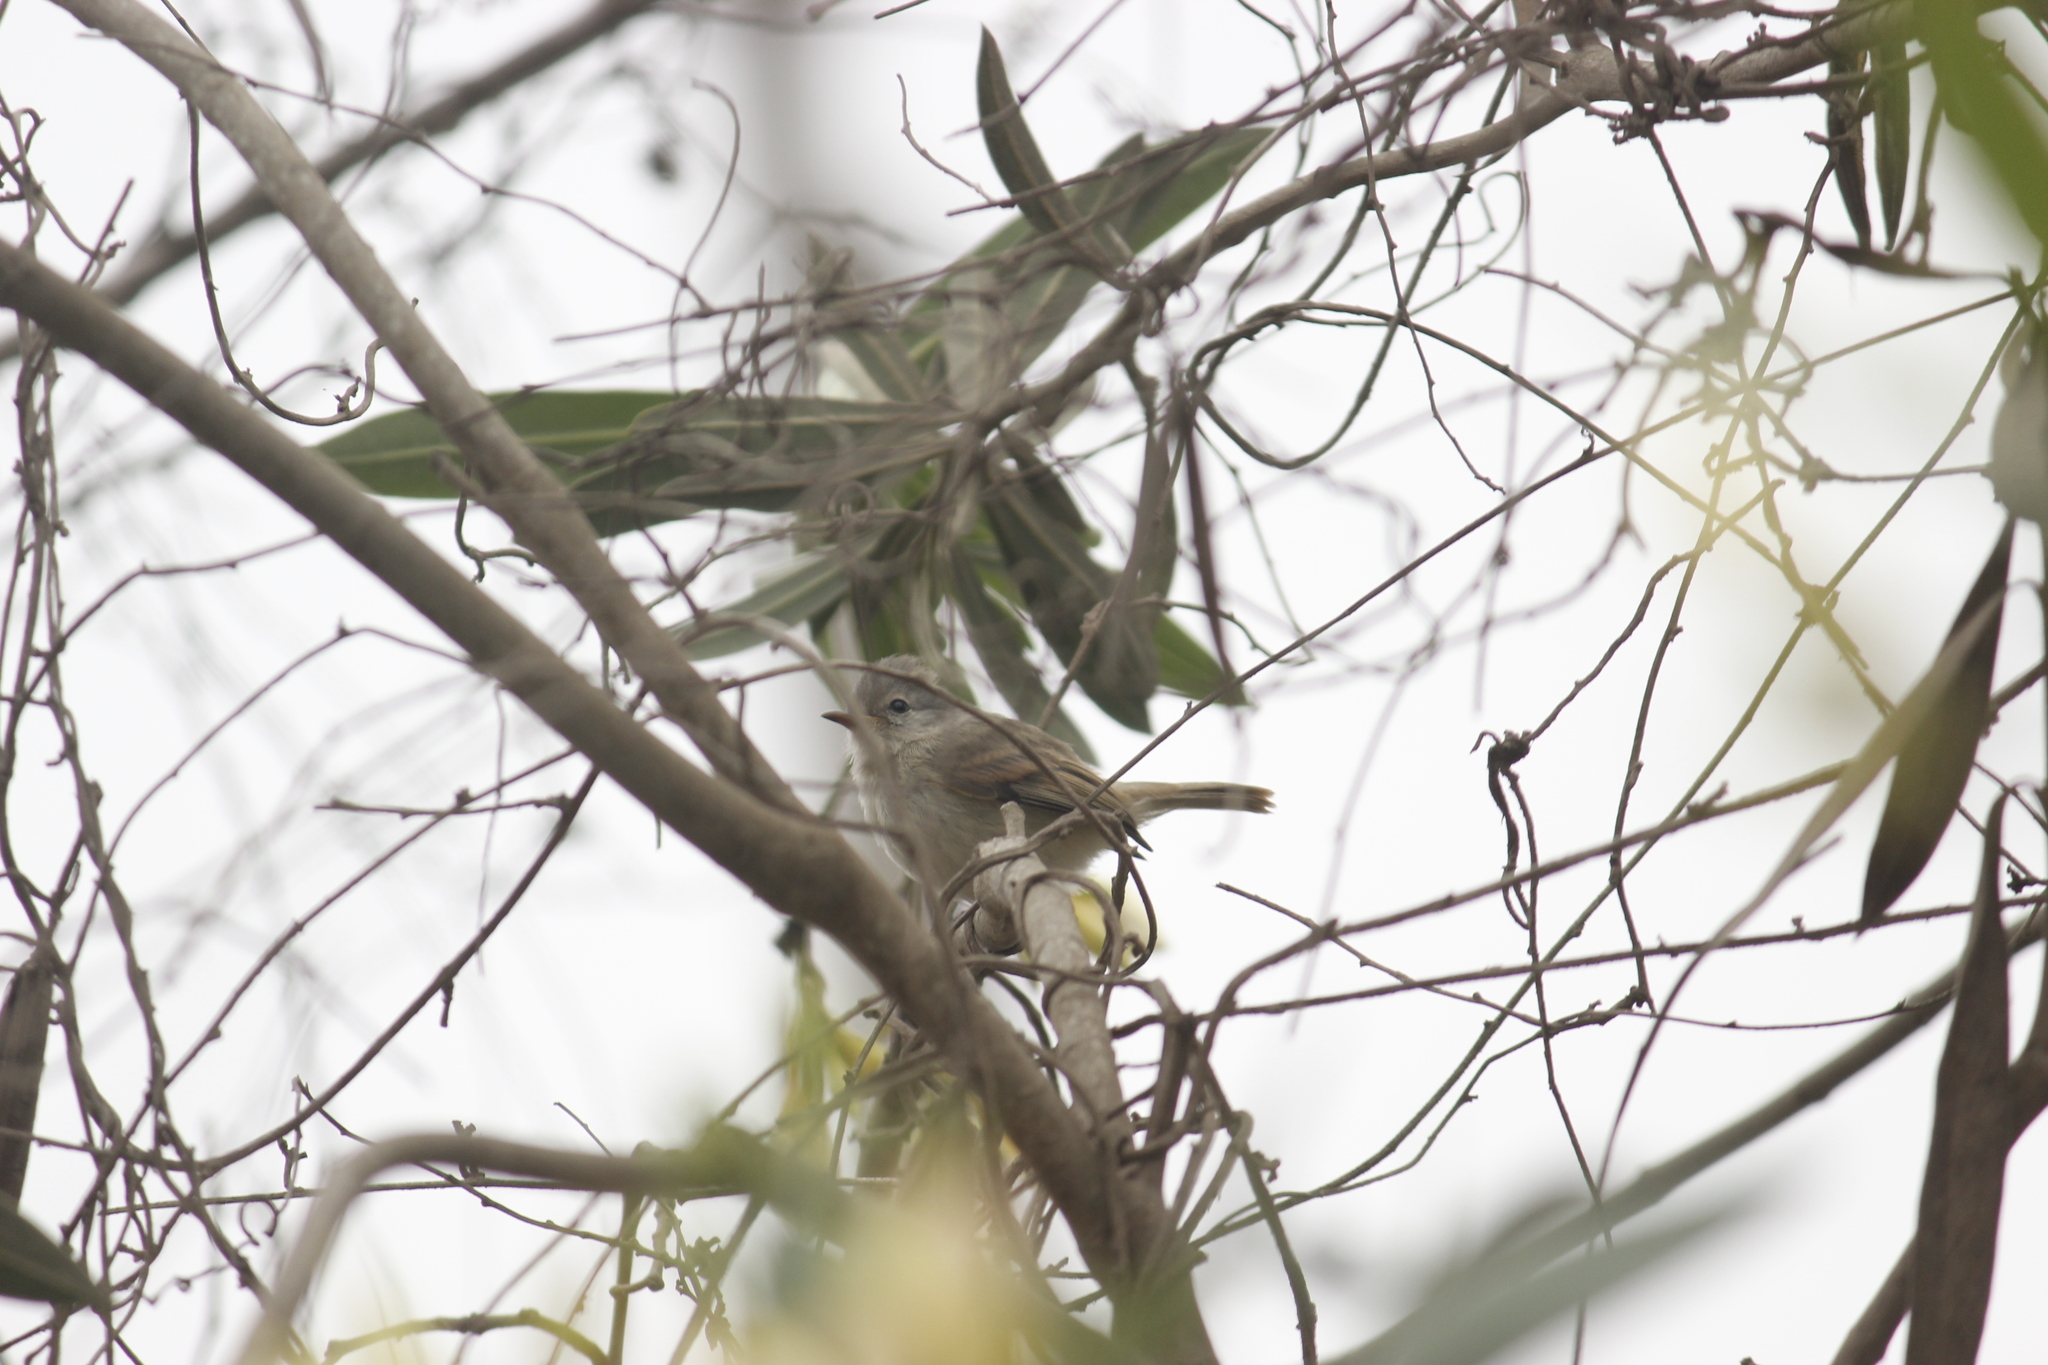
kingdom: Animalia
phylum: Chordata
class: Aves
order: Passeriformes
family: Tyrannidae
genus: Camptostoma
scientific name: Camptostoma obsoletum
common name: Southern beardless-tyrannulet
